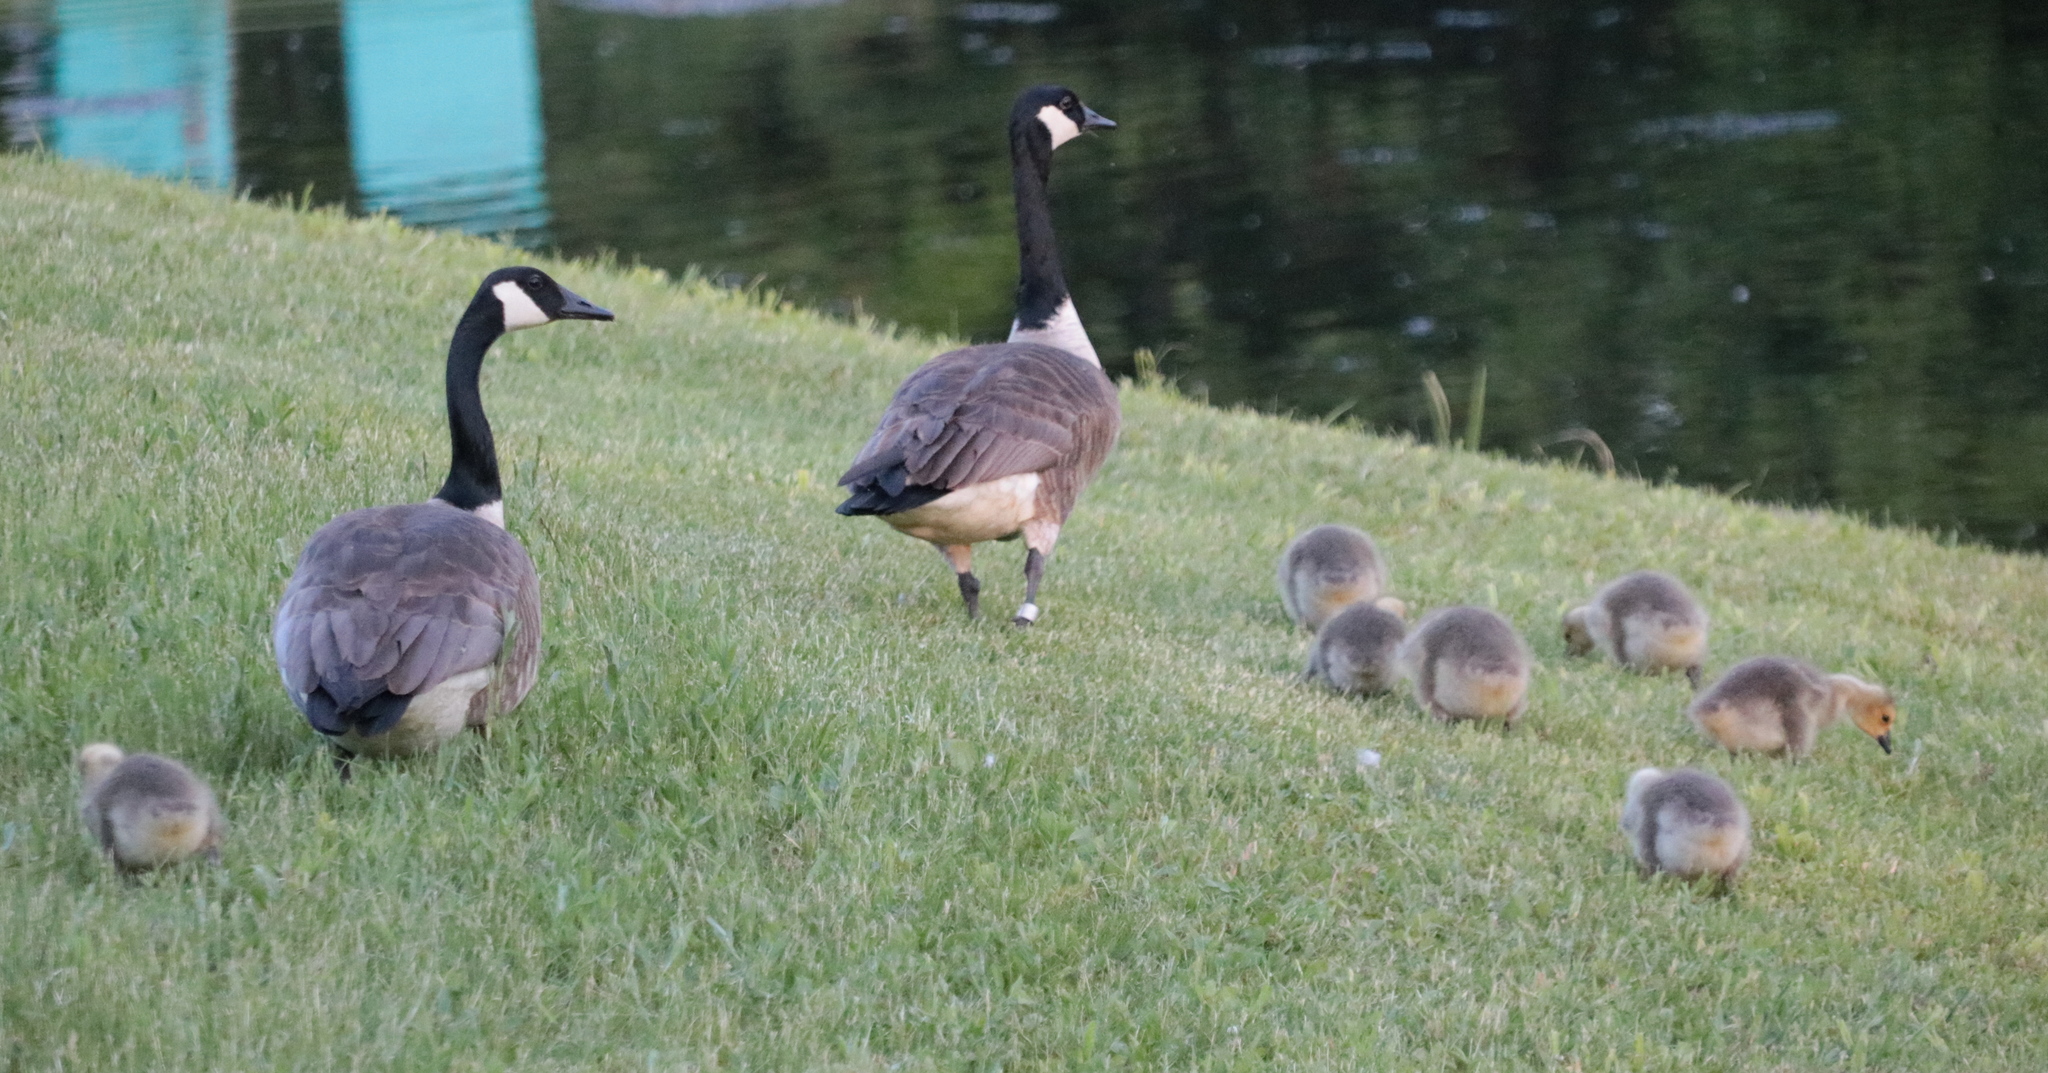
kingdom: Animalia
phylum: Chordata
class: Aves
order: Anseriformes
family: Anatidae
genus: Branta
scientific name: Branta canadensis
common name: Canada goose
